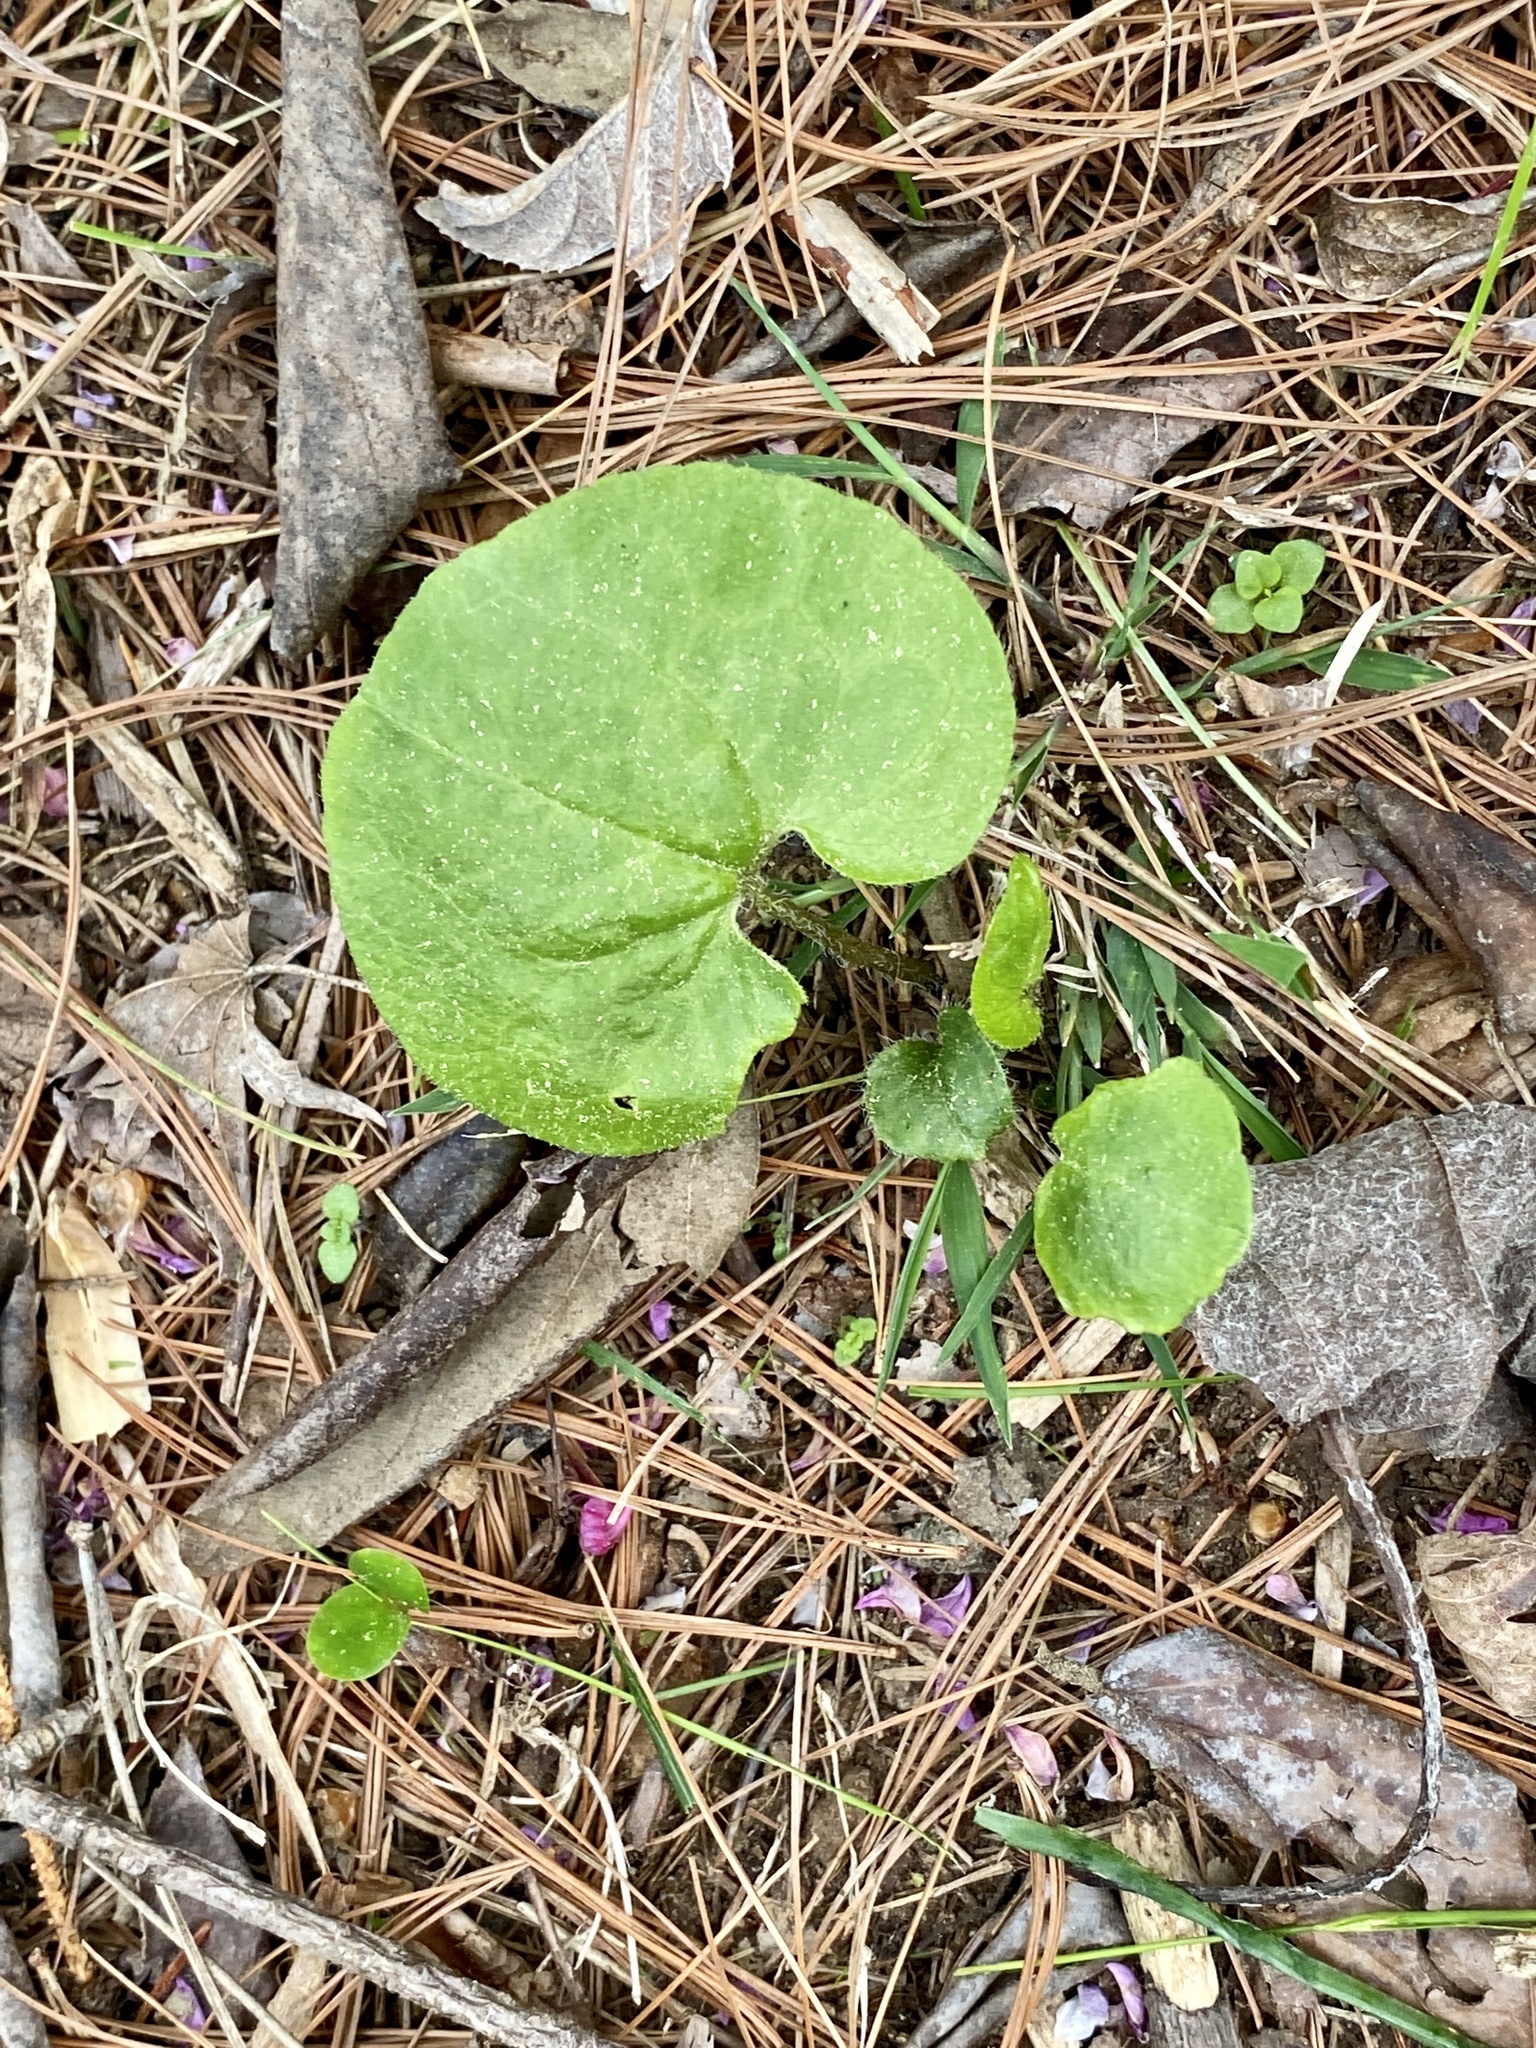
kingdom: Plantae
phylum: Tracheophyta
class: Magnoliopsida
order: Piperales
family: Aristolochiaceae
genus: Asarum
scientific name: Asarum canadense
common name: Wild ginger
